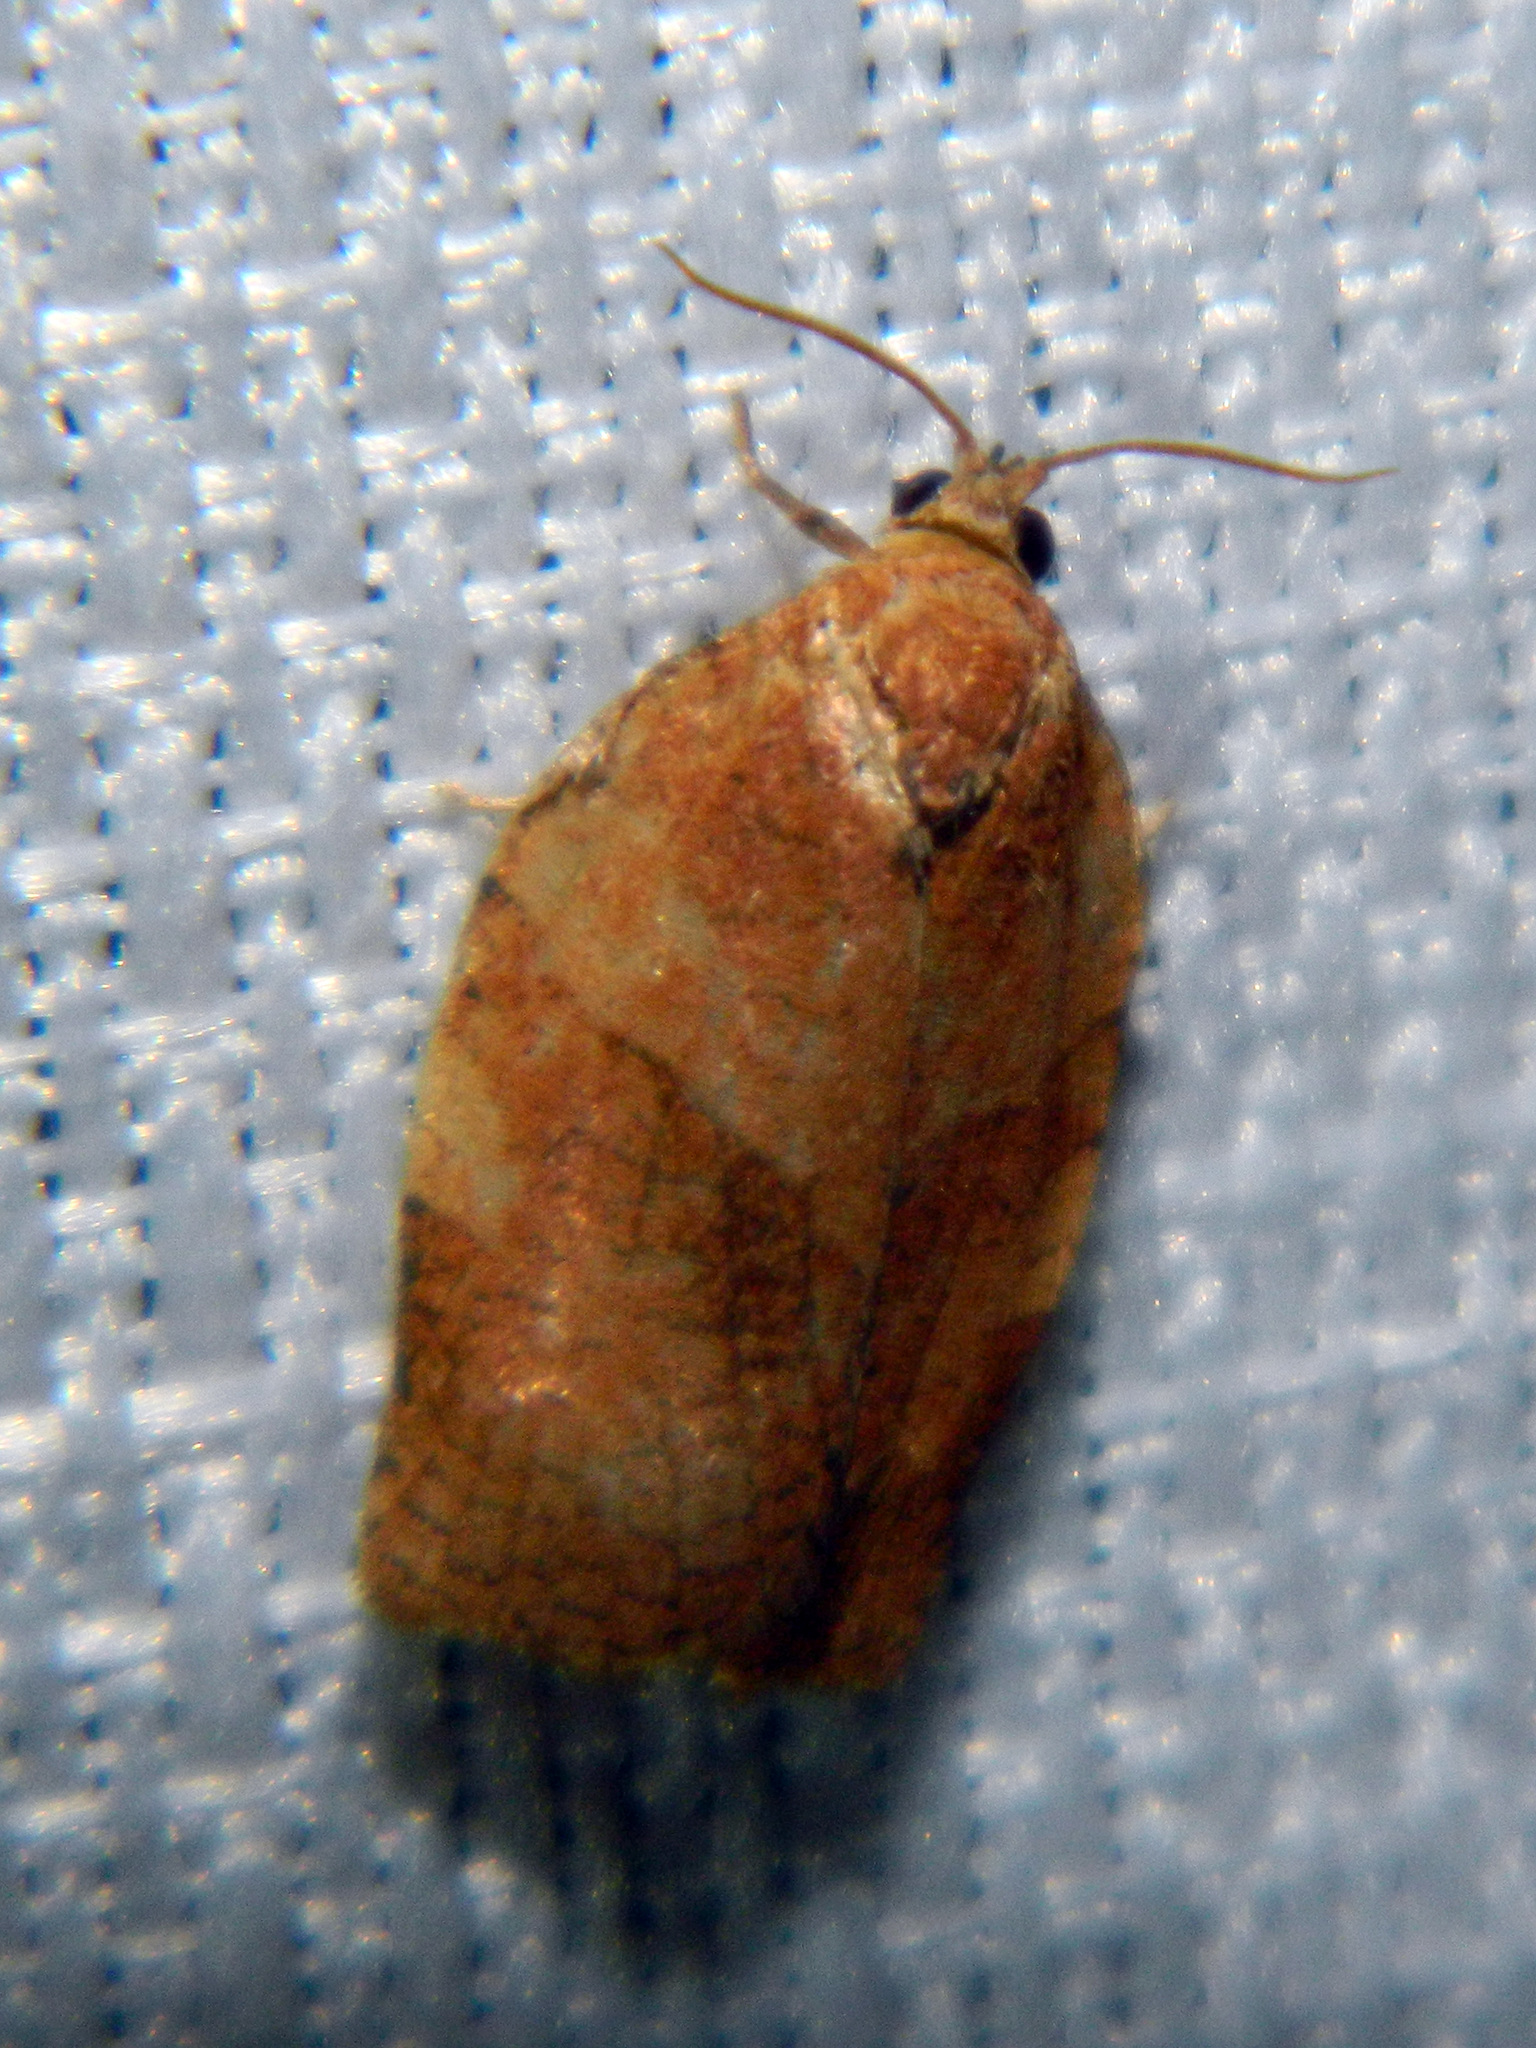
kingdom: Animalia
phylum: Arthropoda
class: Insecta
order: Lepidoptera
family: Tortricidae
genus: Choristoneura
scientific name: Choristoneura rosaceana
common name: Oblique-banded leafroller moth
